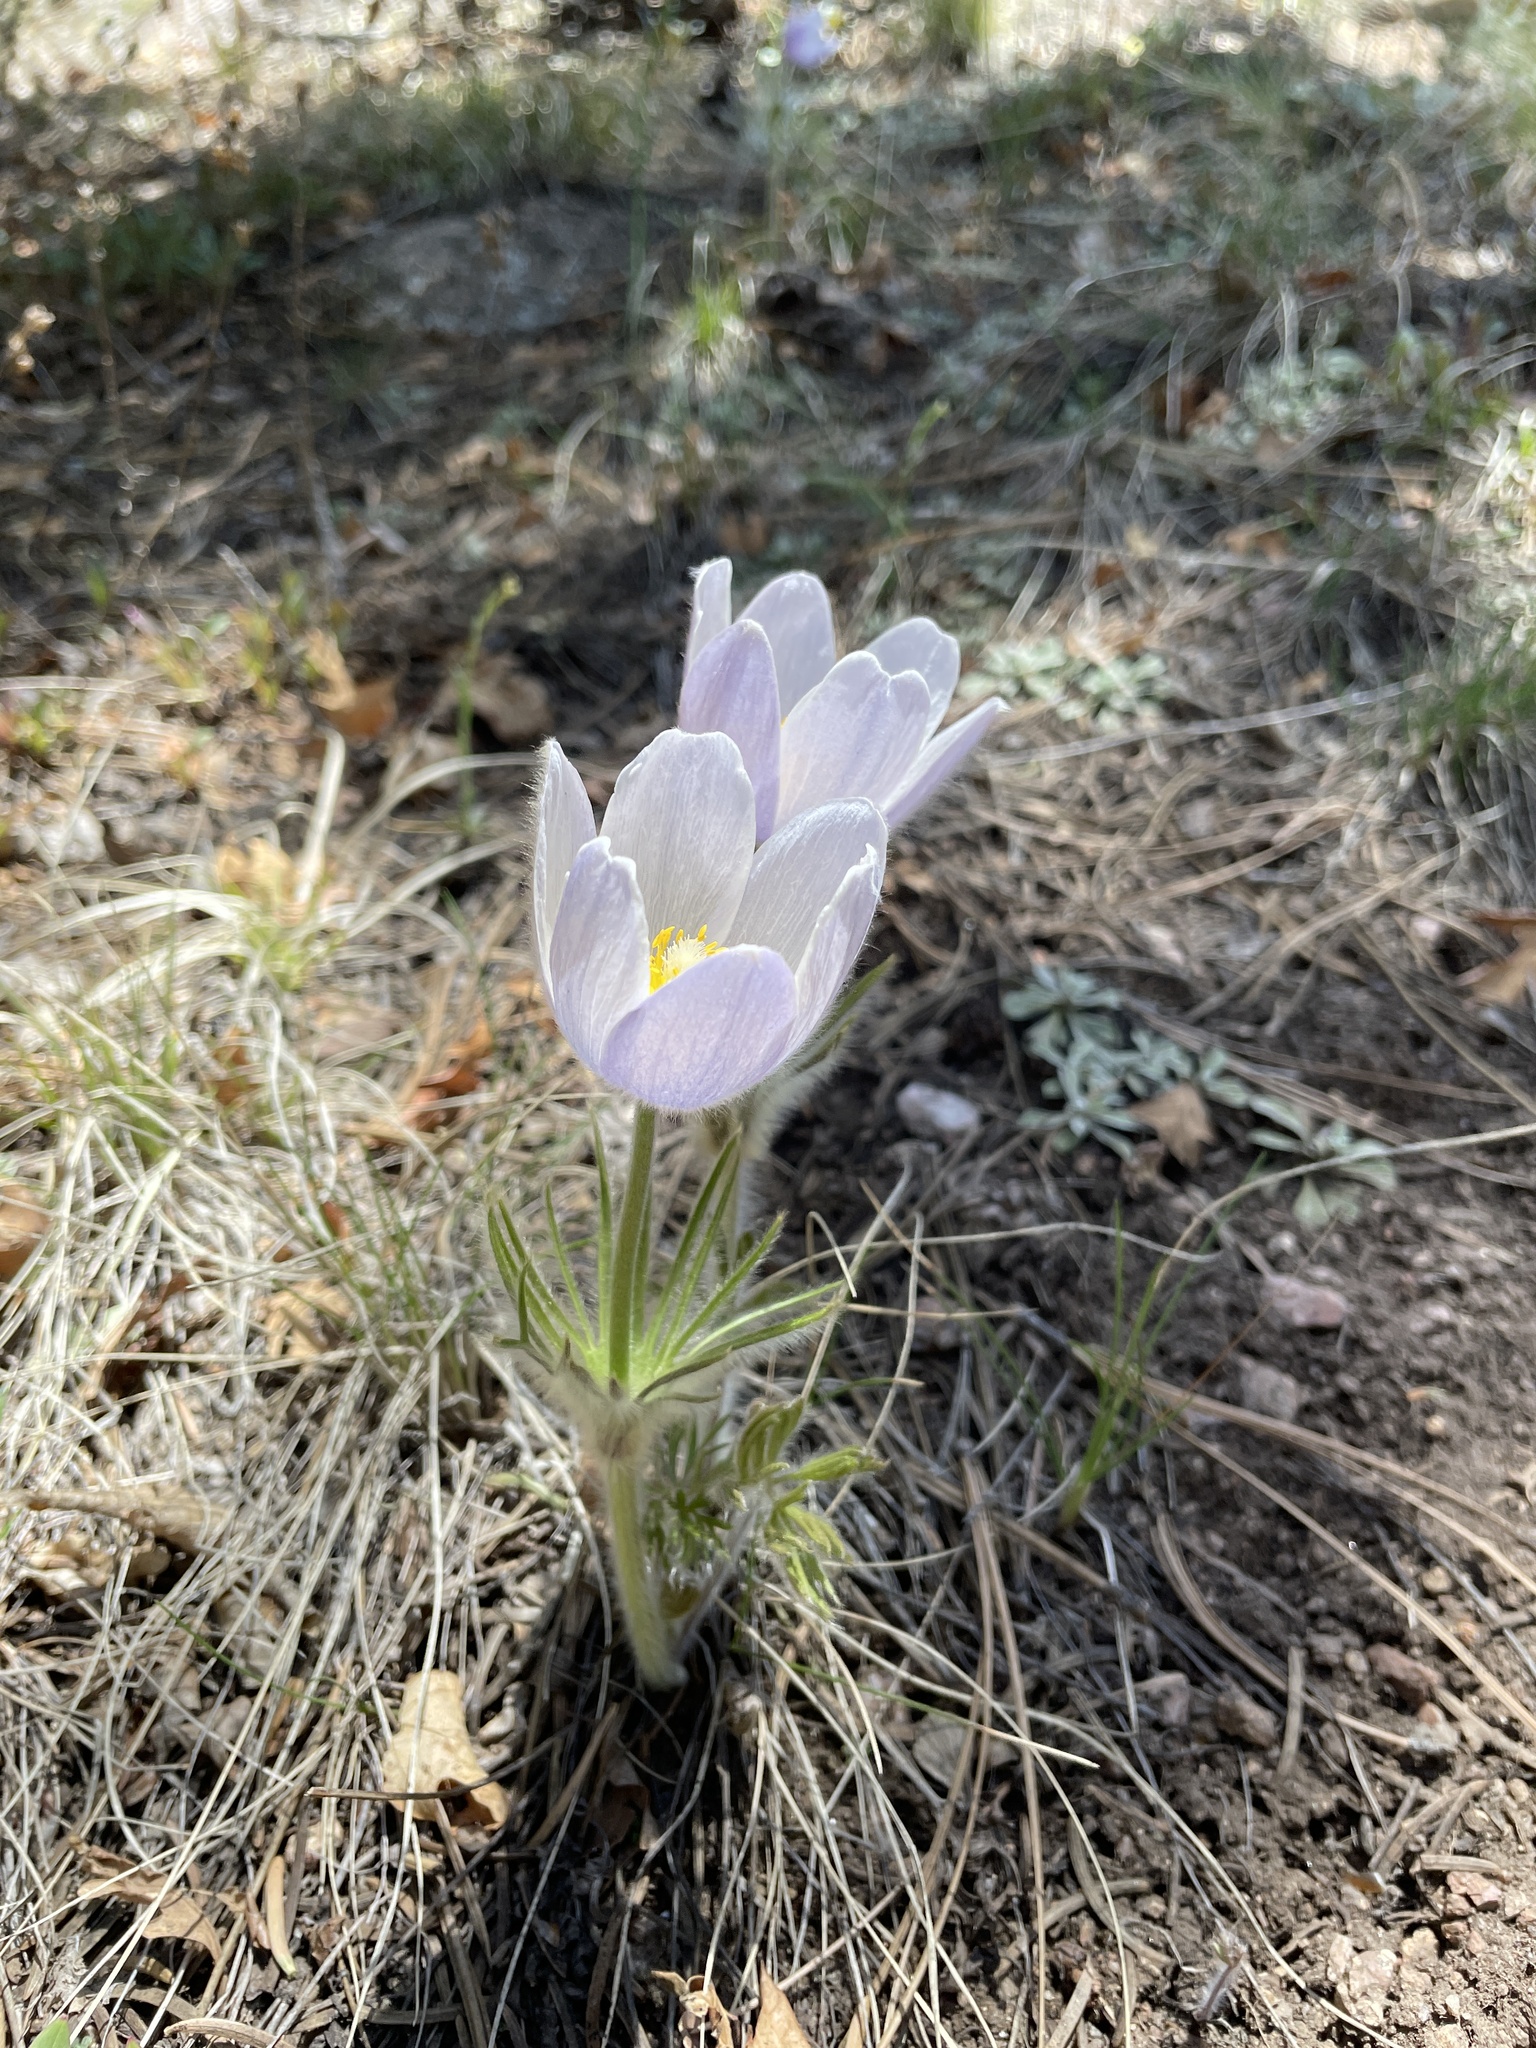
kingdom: Plantae
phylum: Tracheophyta
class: Magnoliopsida
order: Ranunculales
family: Ranunculaceae
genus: Pulsatilla
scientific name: Pulsatilla nuttalliana
